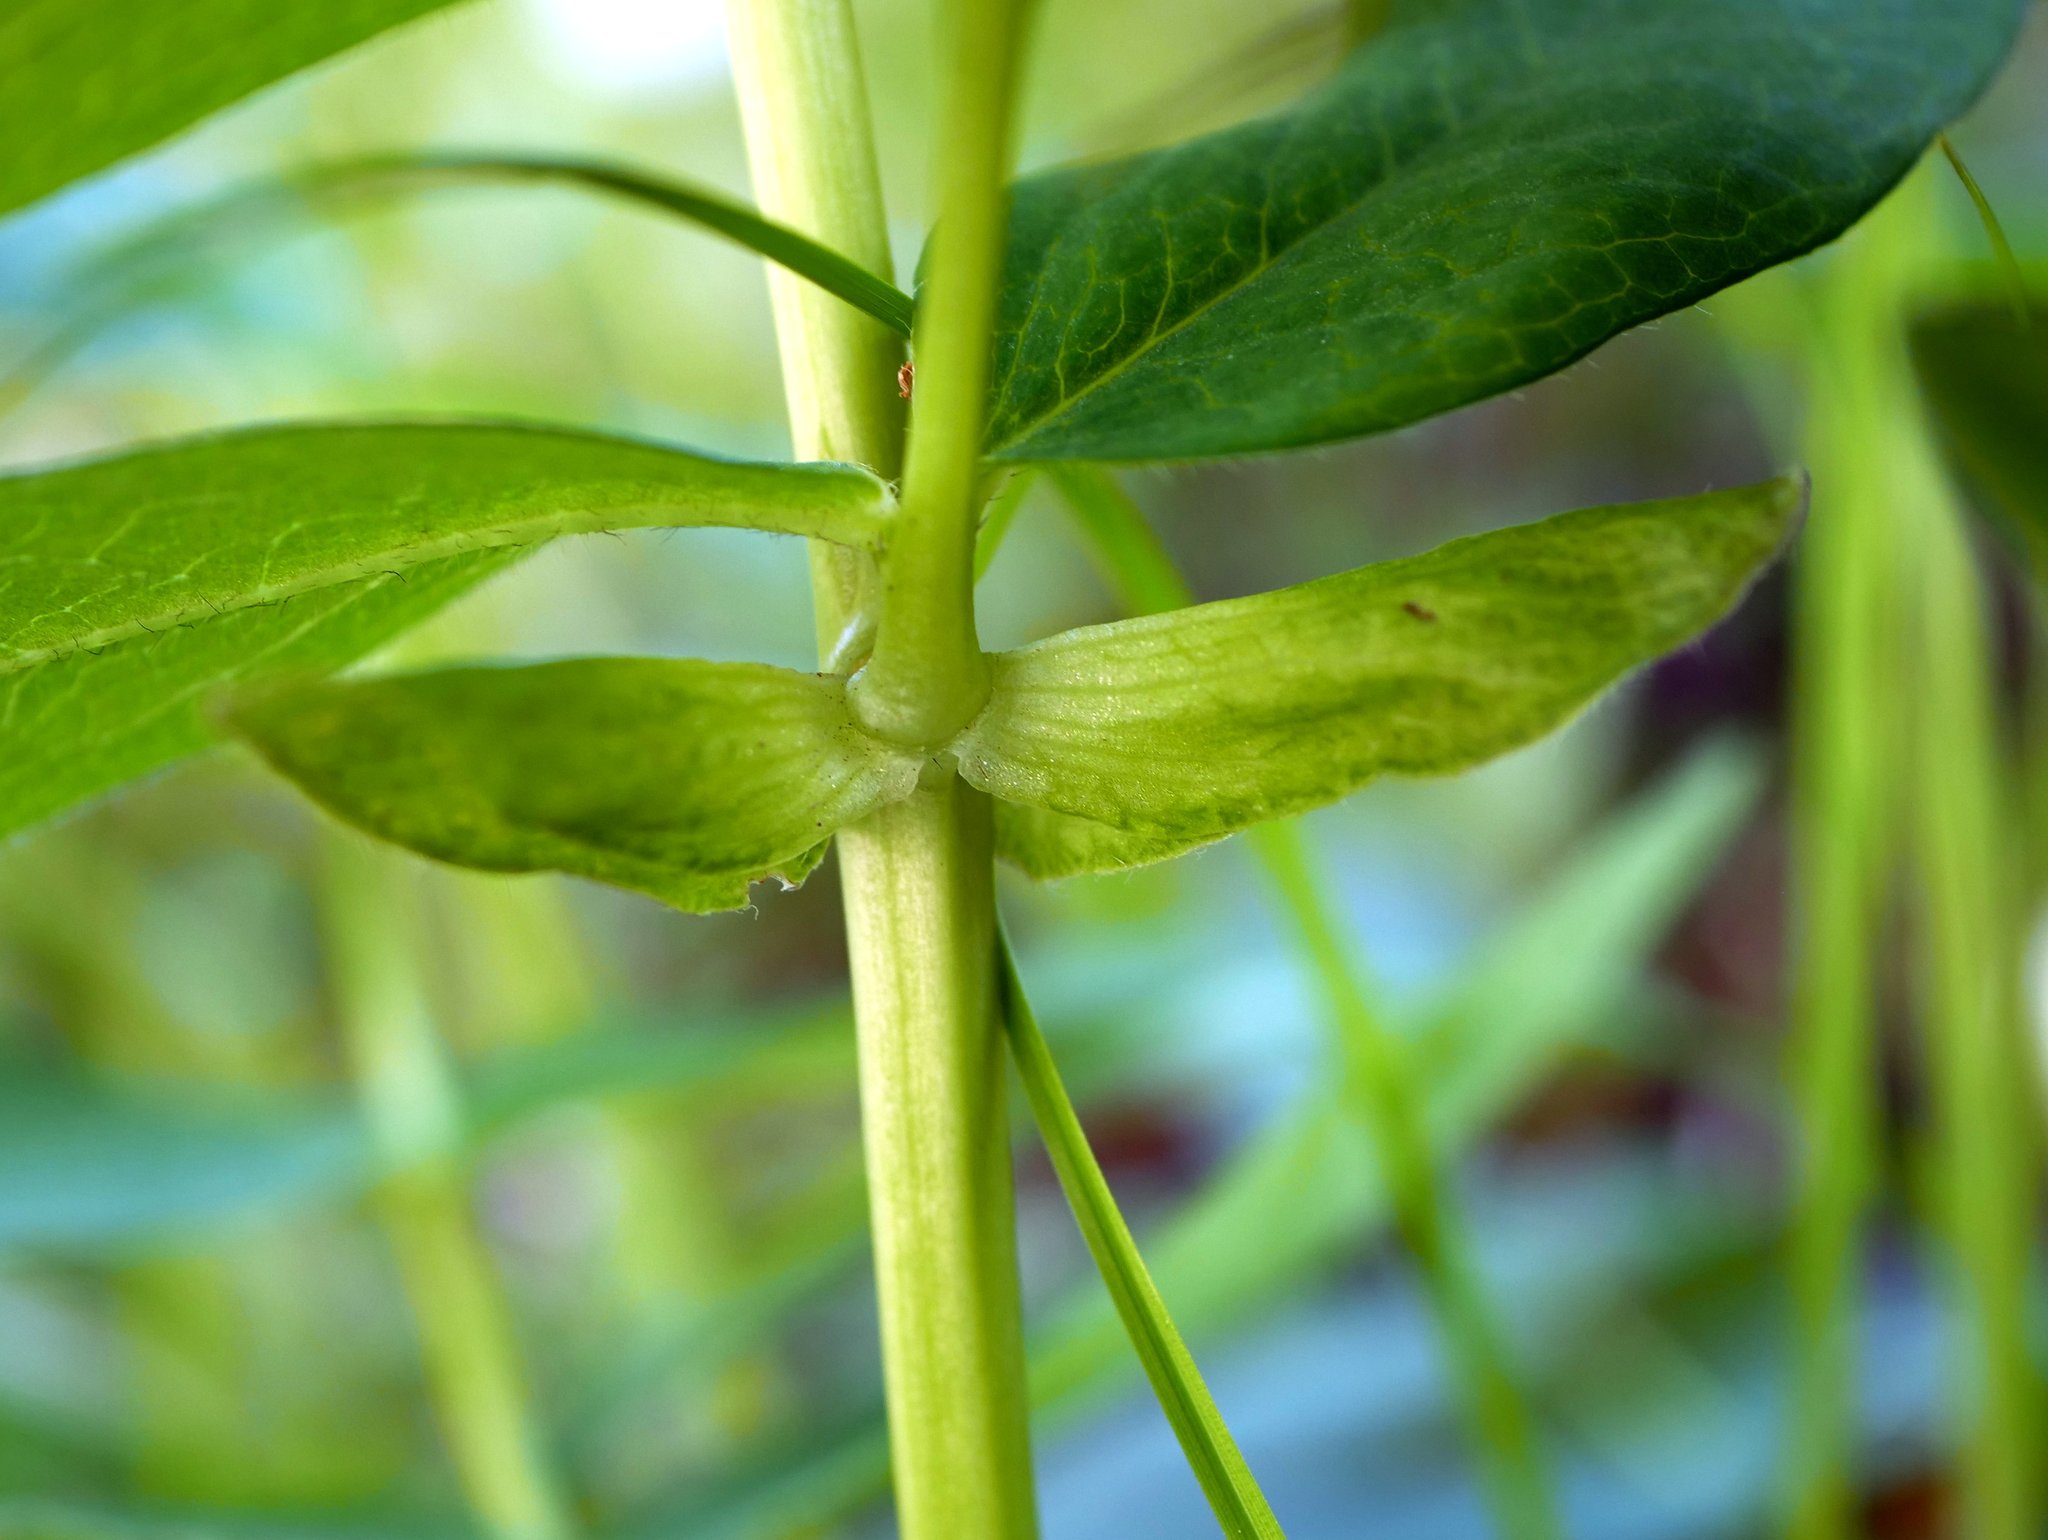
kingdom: Plantae
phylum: Tracheophyta
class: Magnoliopsida
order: Fabales
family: Fabaceae
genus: Astragalus
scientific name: Astragalus frigidus
